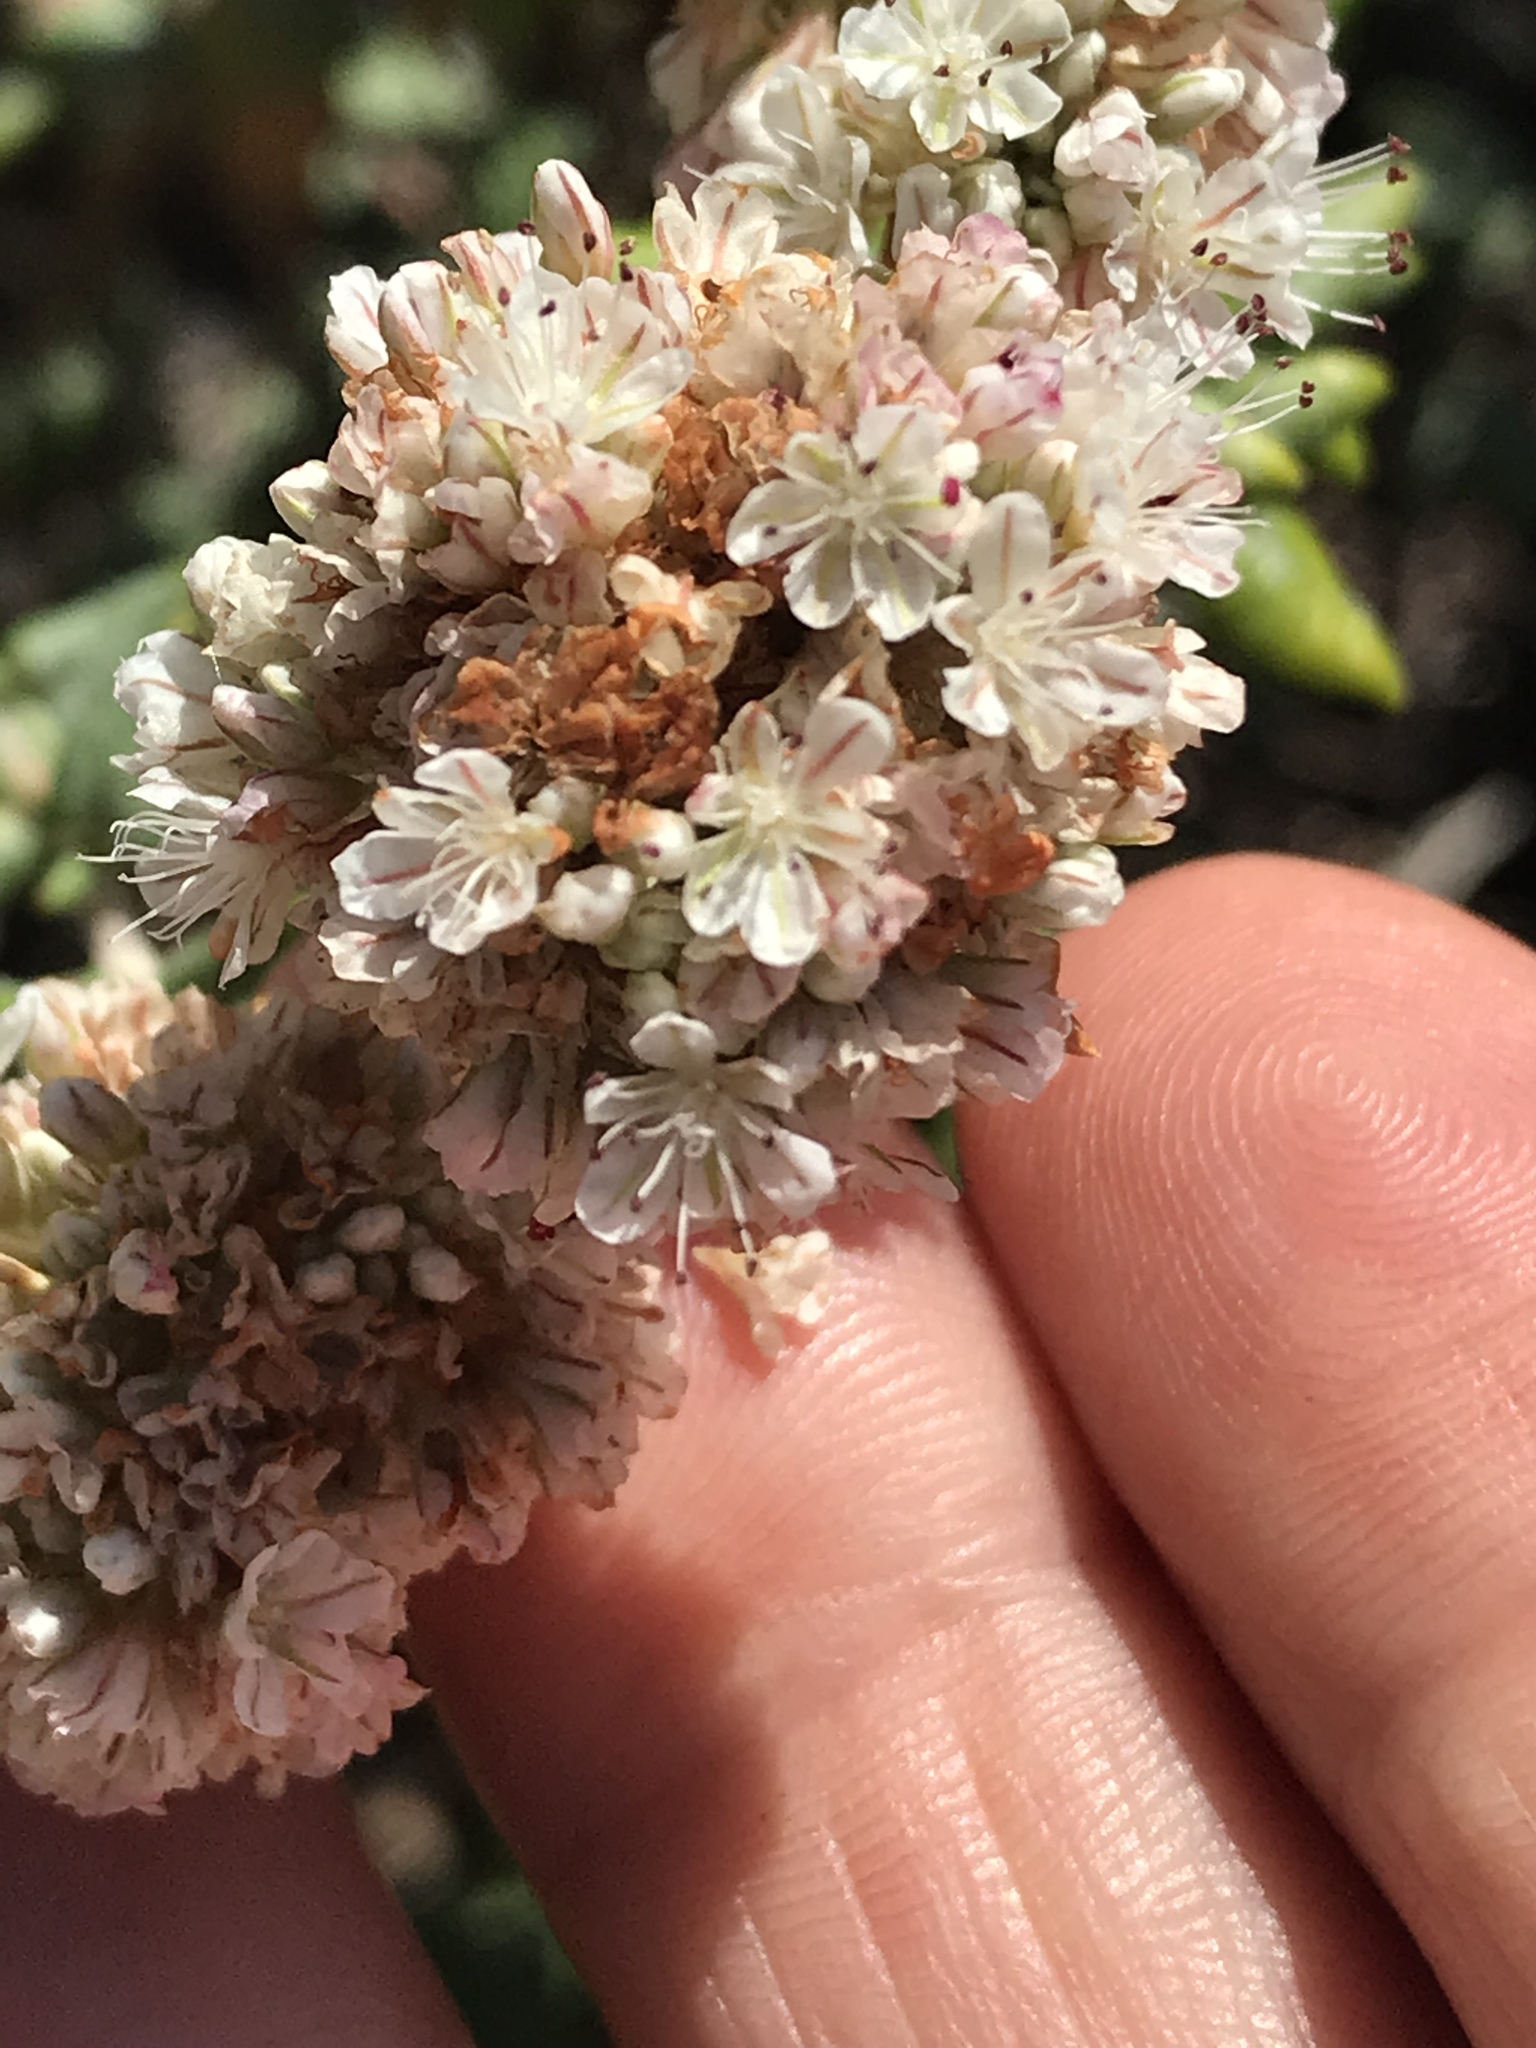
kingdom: Plantae
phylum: Tracheophyta
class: Magnoliopsida
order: Caryophyllales
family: Polygonaceae
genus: Eriogonum
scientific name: Eriogonum parvifolium
